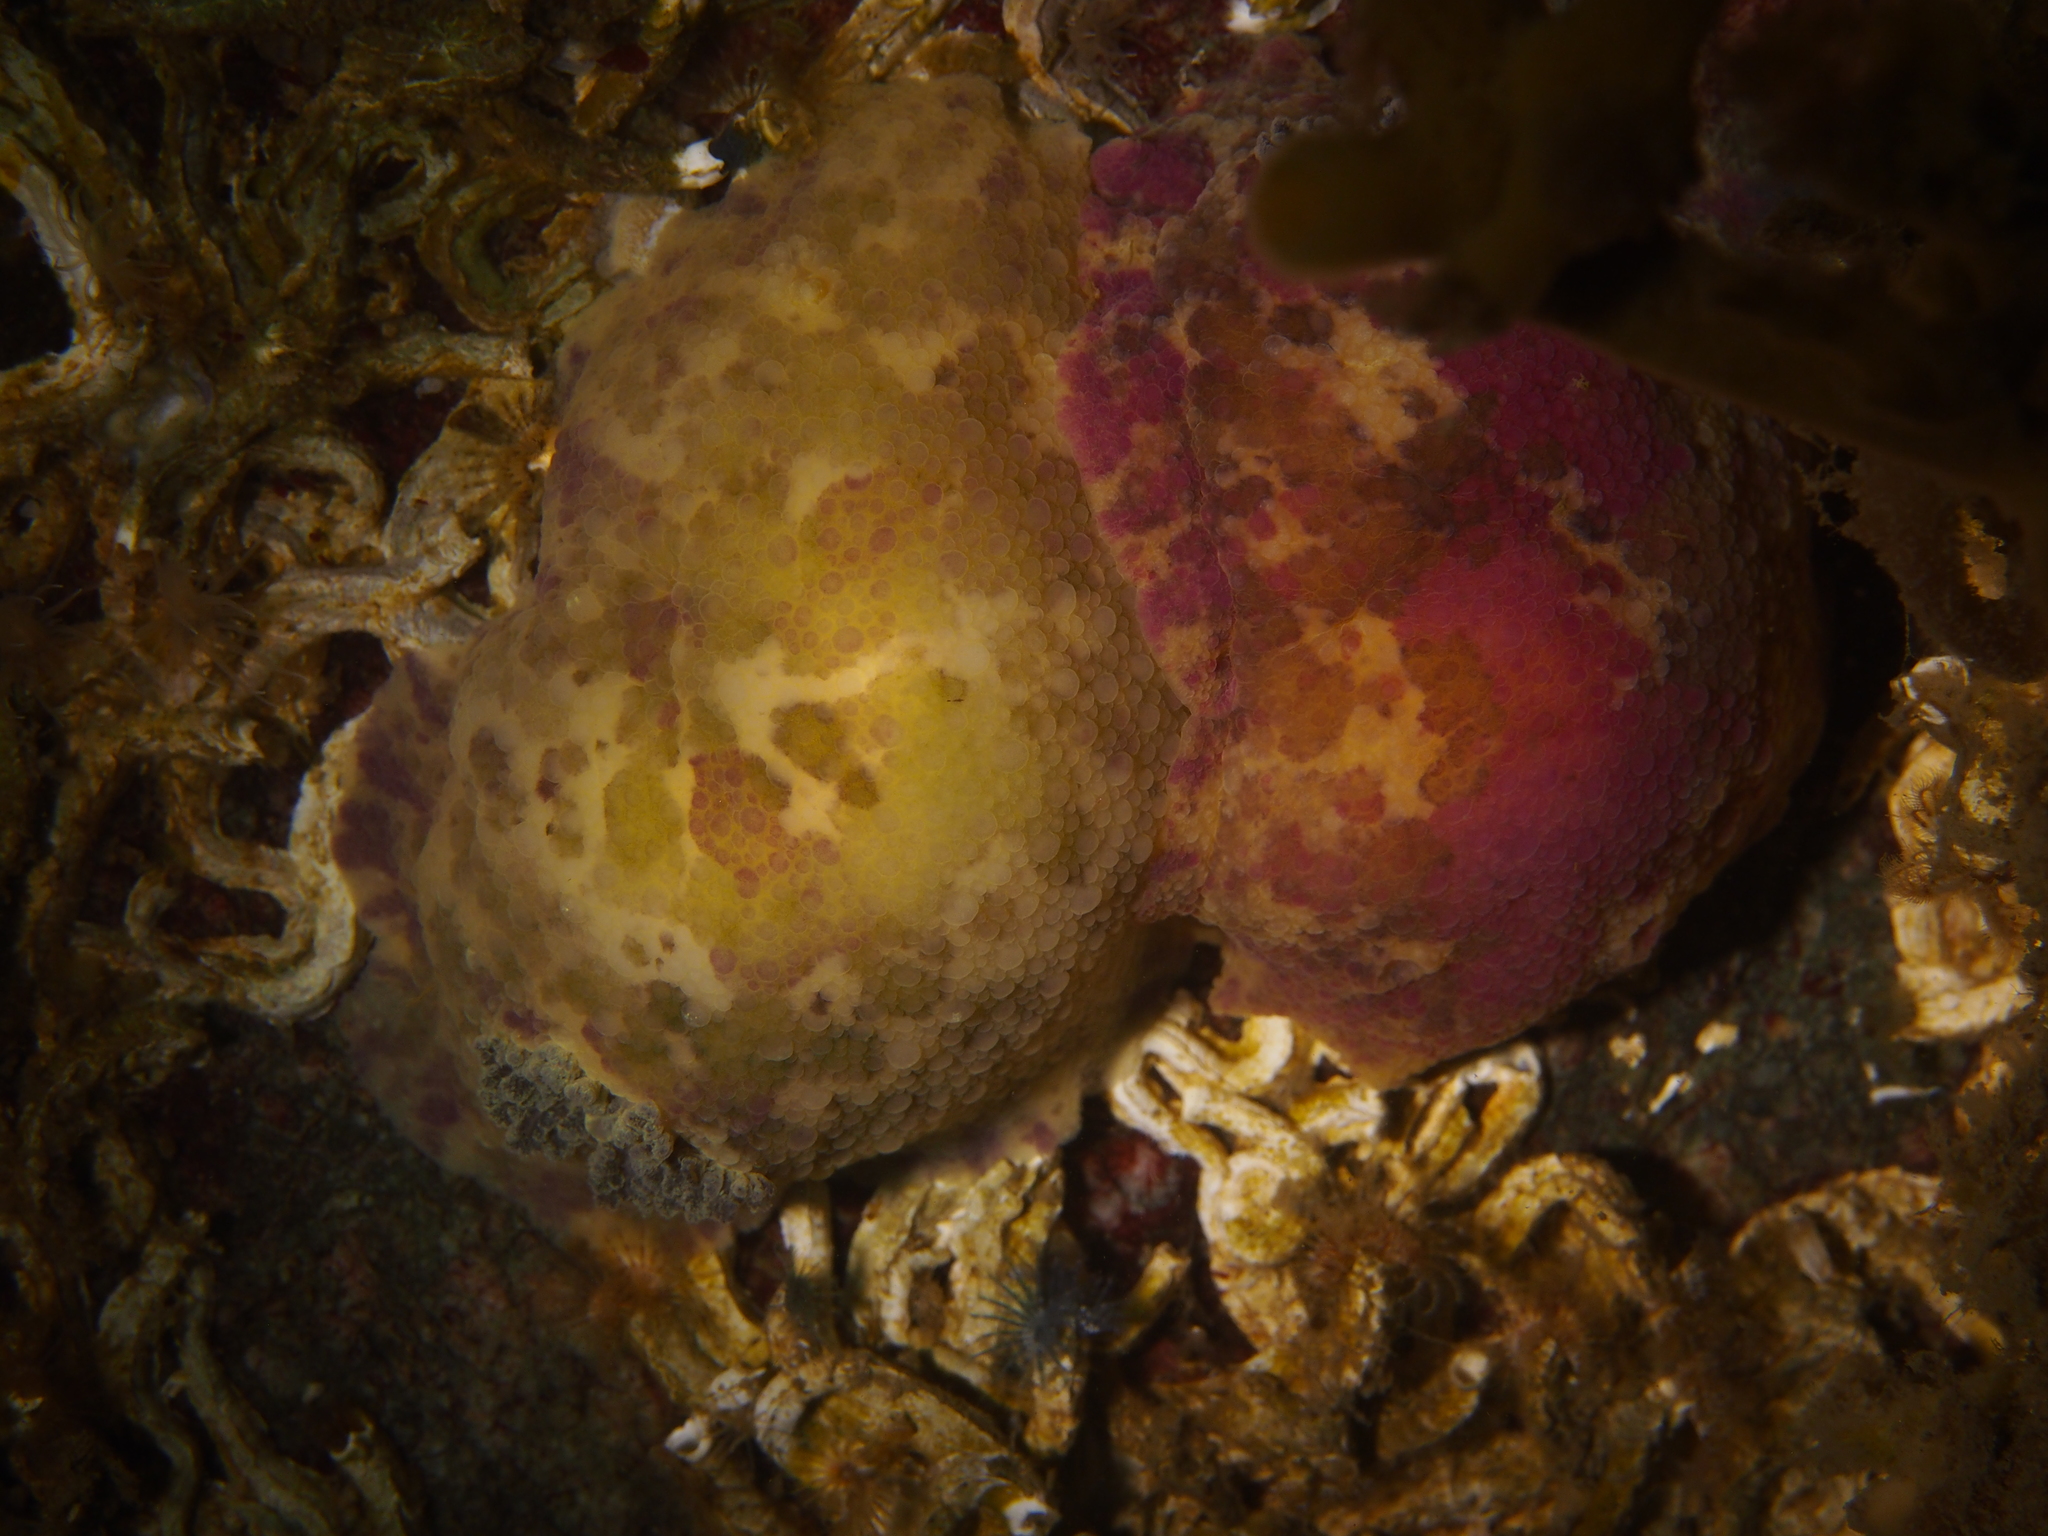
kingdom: Animalia
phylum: Mollusca
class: Gastropoda
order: Nudibranchia
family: Dorididae
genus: Doris
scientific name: Doris pseudoargus
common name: Sea lemon
